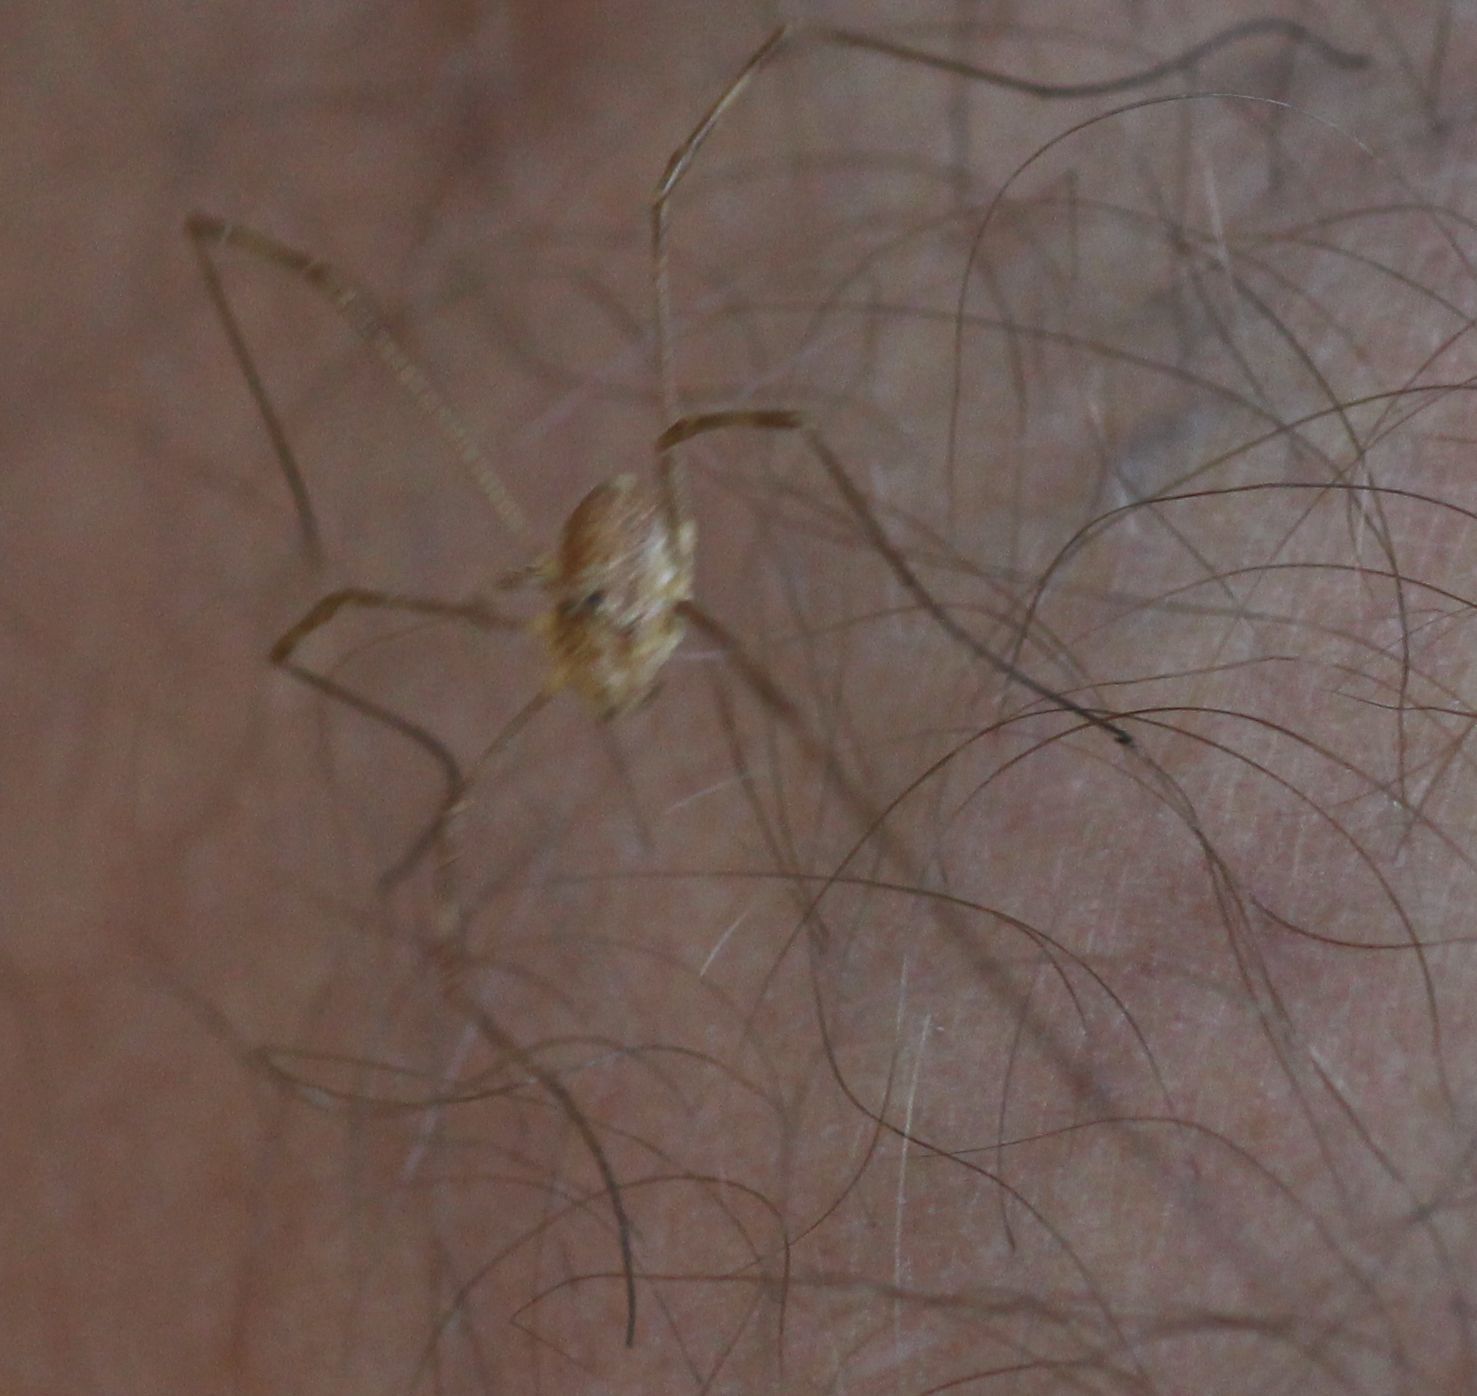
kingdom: Animalia
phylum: Arthropoda
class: Arachnida
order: Opiliones
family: Phalangiidae
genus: Rilaena
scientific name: Rilaena triangularis
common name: Spring harvestman
